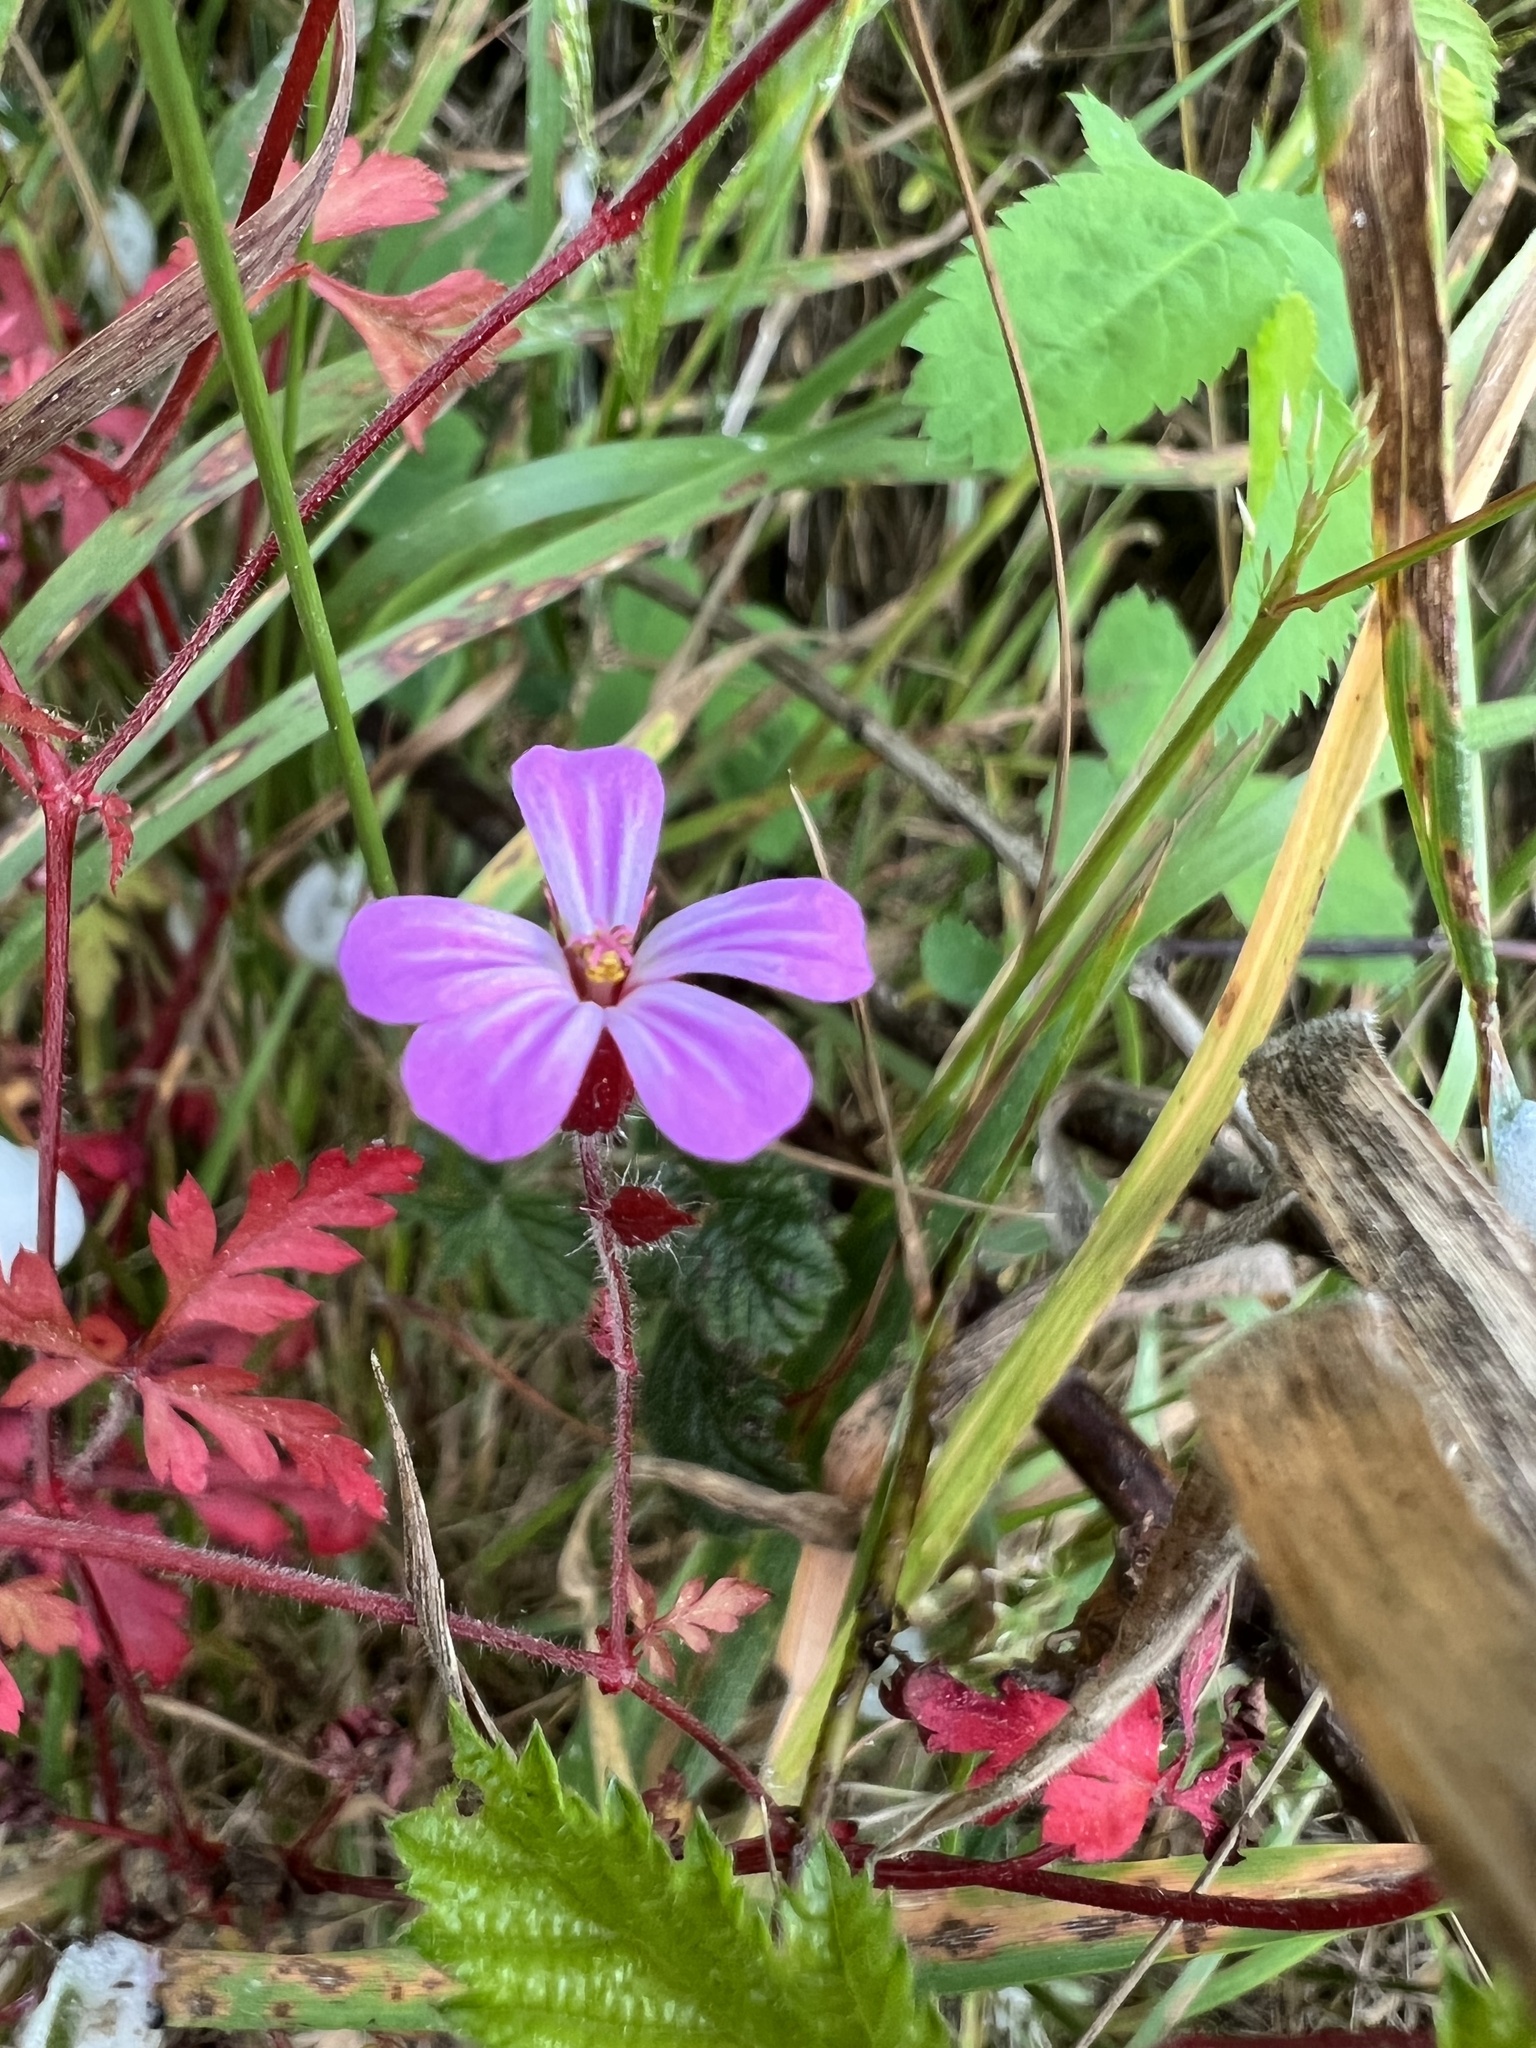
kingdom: Plantae
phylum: Tracheophyta
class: Magnoliopsida
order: Geraniales
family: Geraniaceae
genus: Geranium
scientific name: Geranium robertianum
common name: Herb-robert
